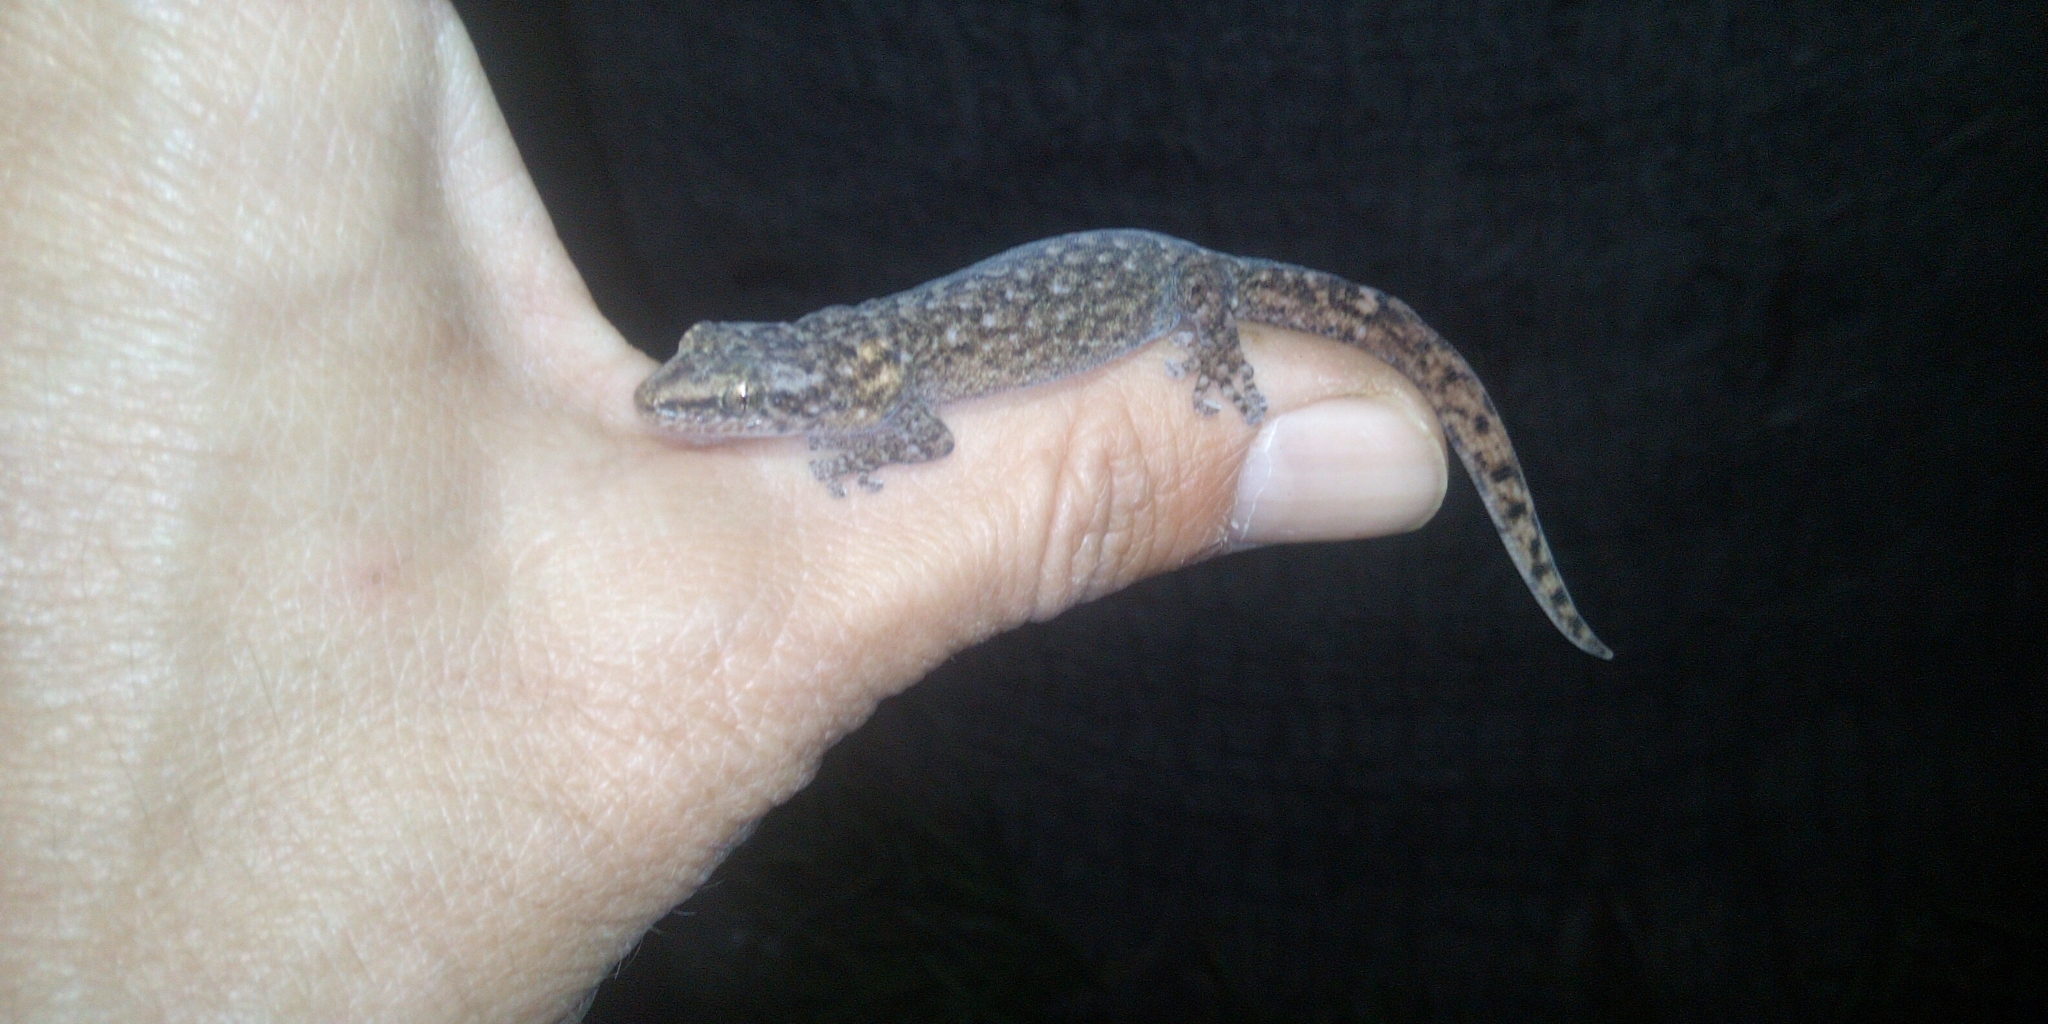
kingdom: Animalia
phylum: Chordata
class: Squamata
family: Gekkonidae
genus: Afrogecko
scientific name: Afrogecko porphyreus
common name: Marbled leaf-toed gecko
